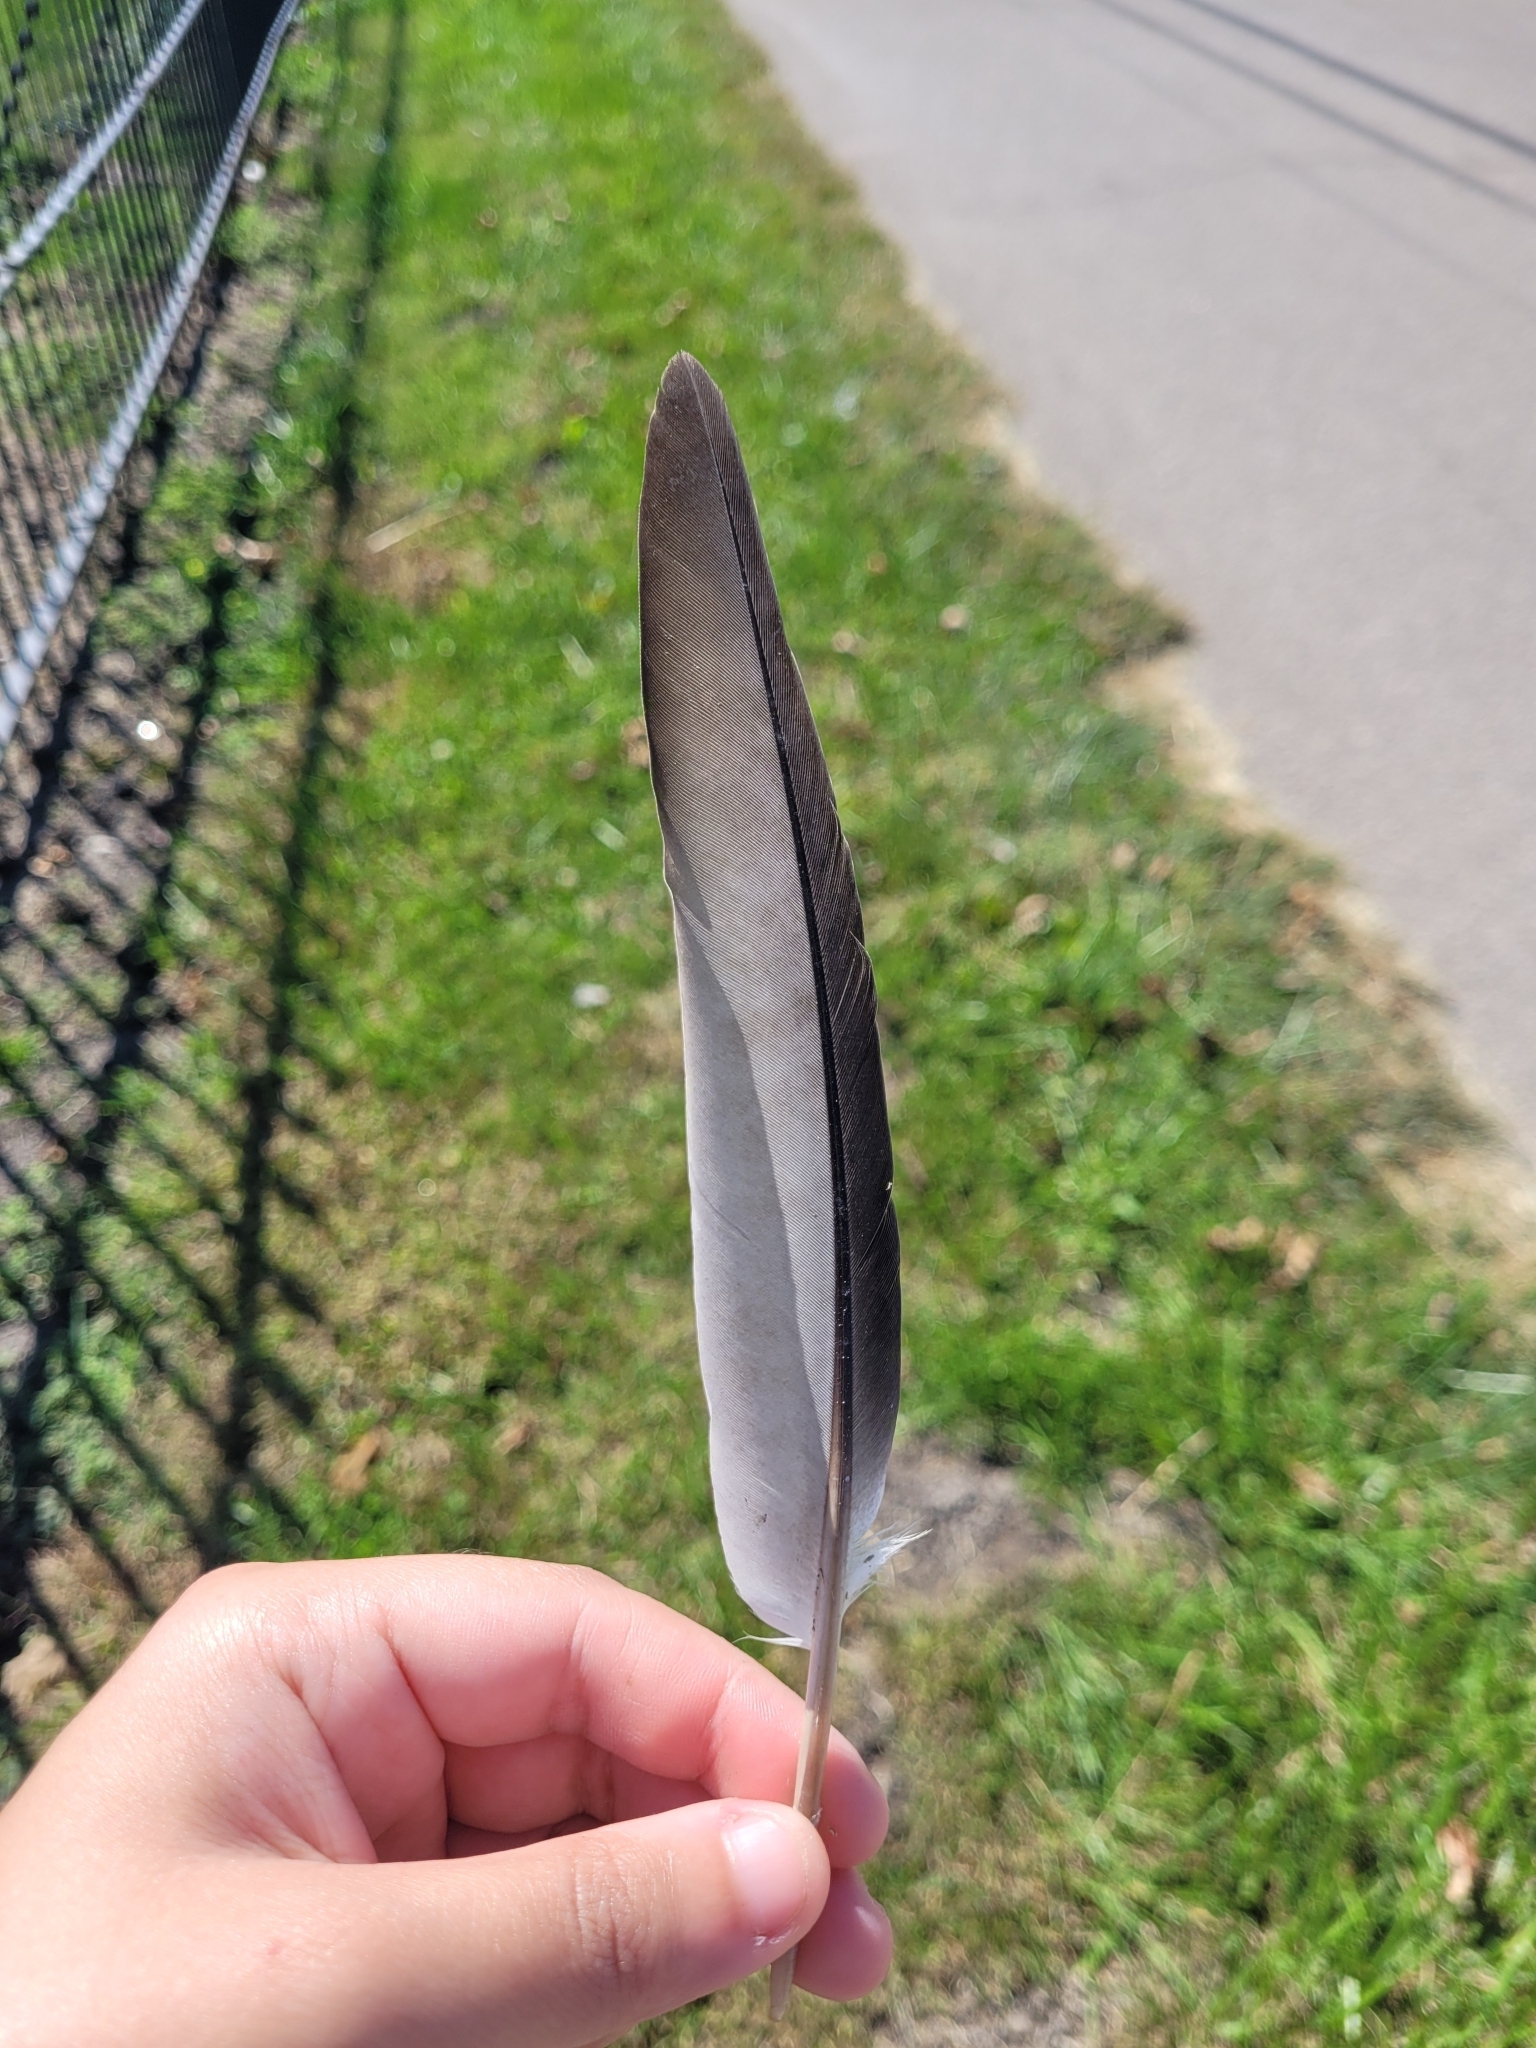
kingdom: Animalia
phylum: Chordata
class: Aves
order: Columbiformes
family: Columbidae
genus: Columba
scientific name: Columba livia
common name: Rock pigeon
